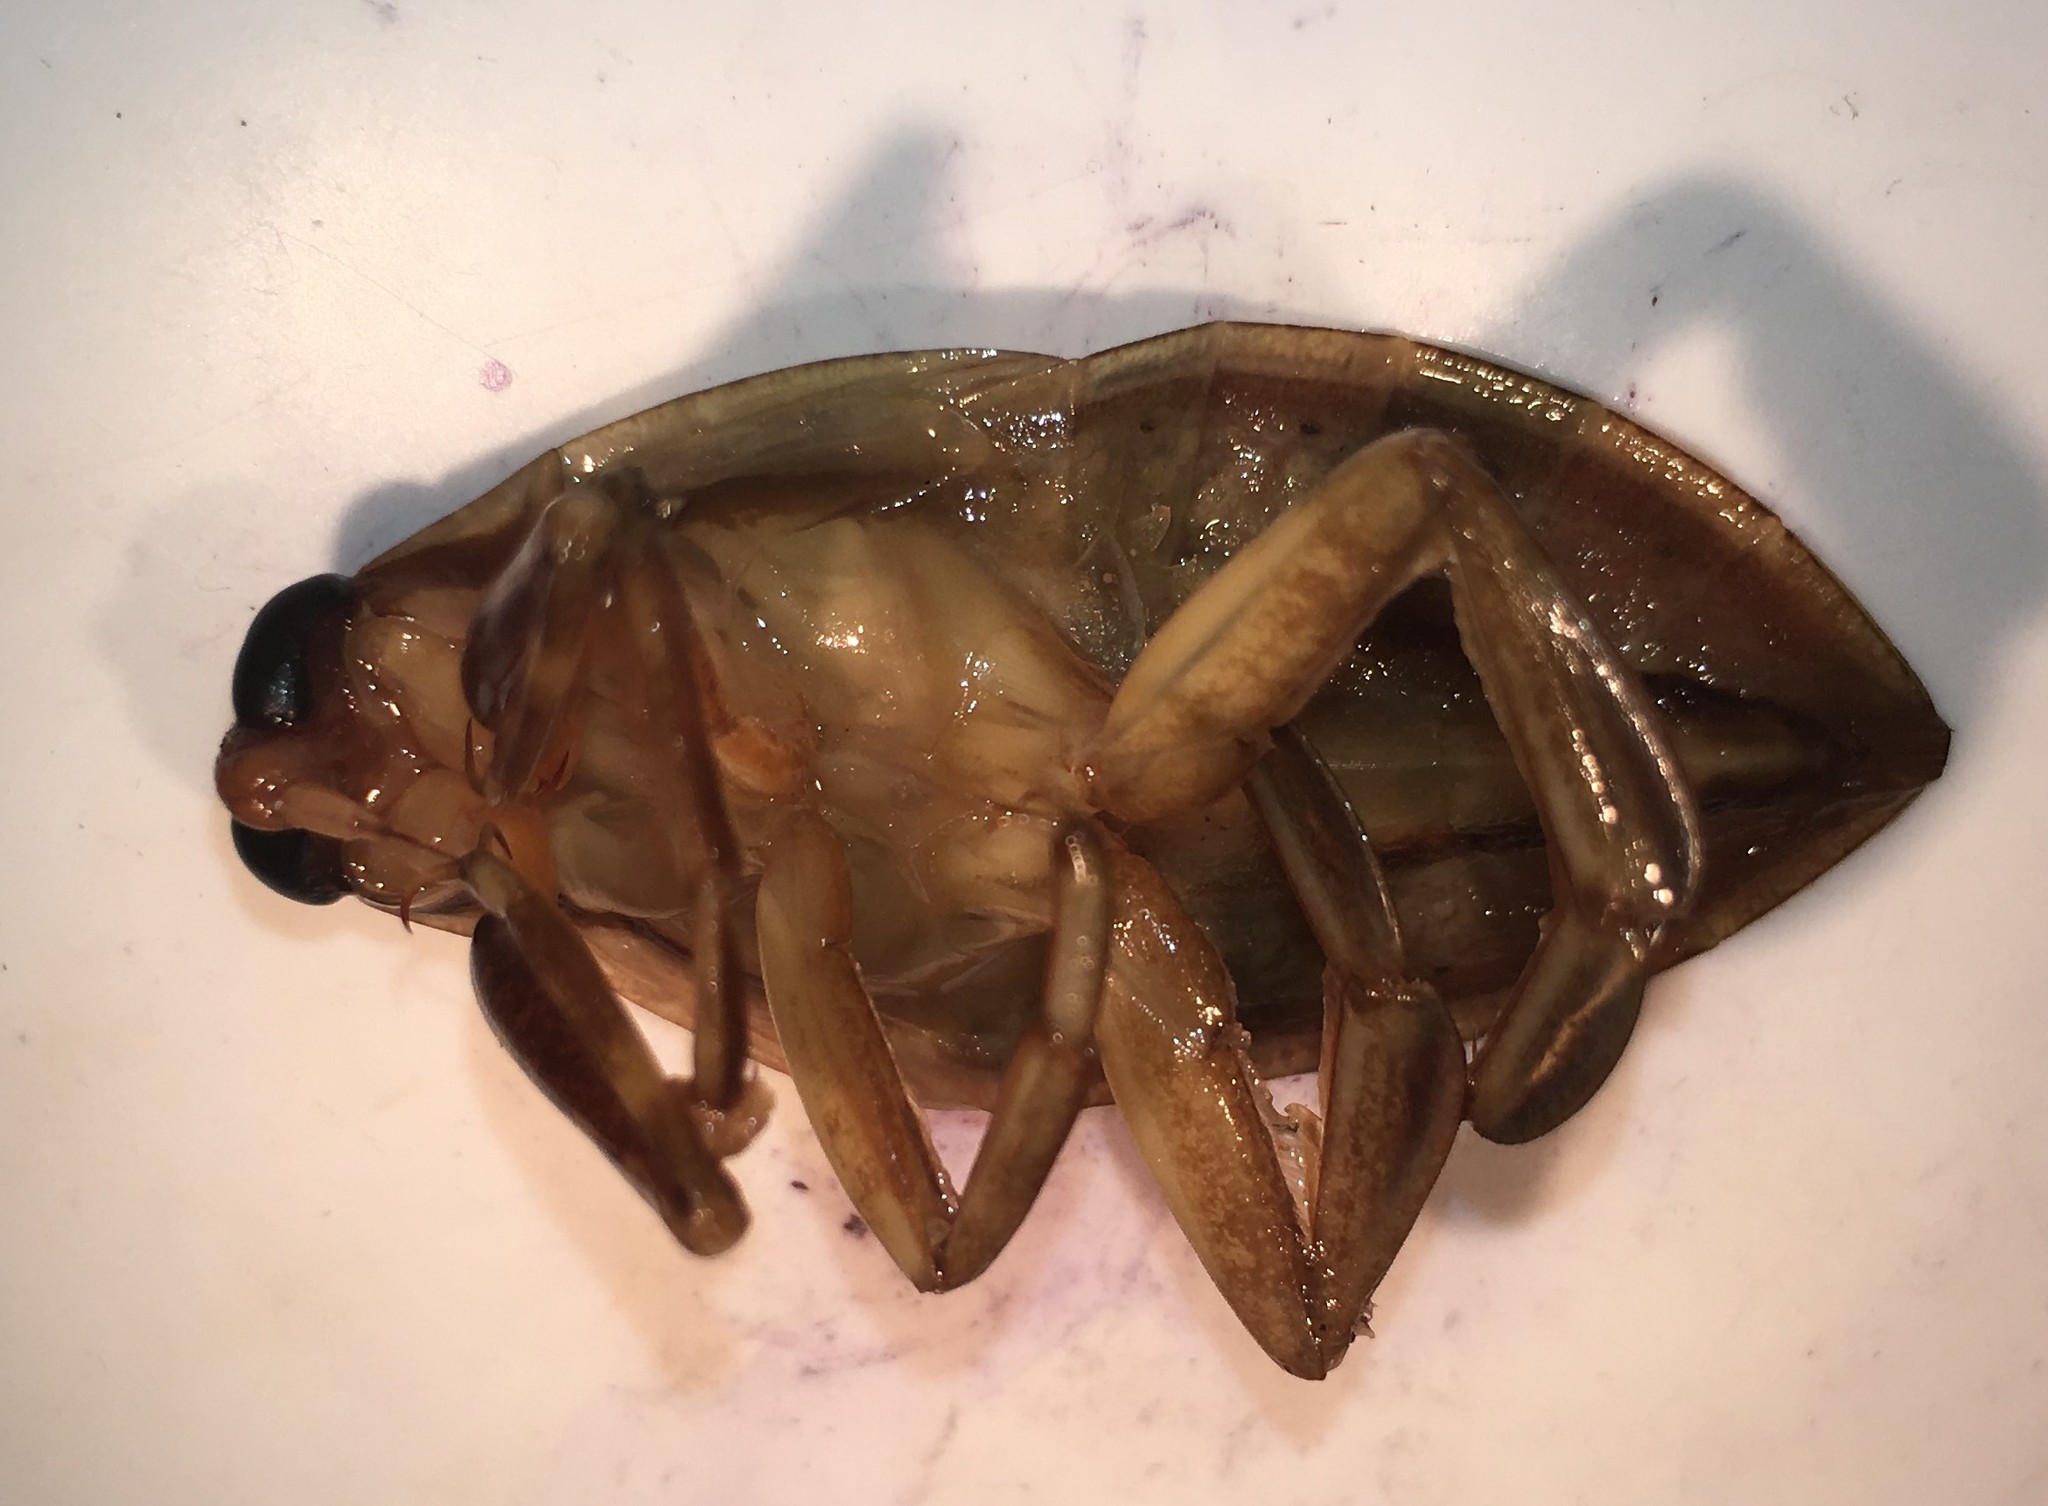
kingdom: Animalia
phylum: Arthropoda
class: Insecta
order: Hemiptera
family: Belostomatidae
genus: Benacus
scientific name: Benacus griseus
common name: Eastern toe-biter
